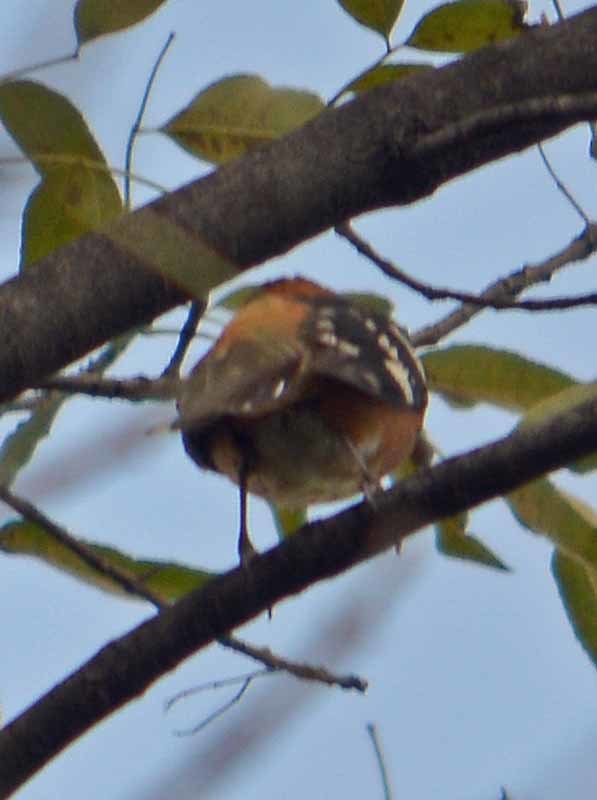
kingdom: Animalia
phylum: Chordata
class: Aves
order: Passeriformes
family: Cardinalidae
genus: Pheucticus
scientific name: Pheucticus melanocephalus
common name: Black-headed grosbeak
